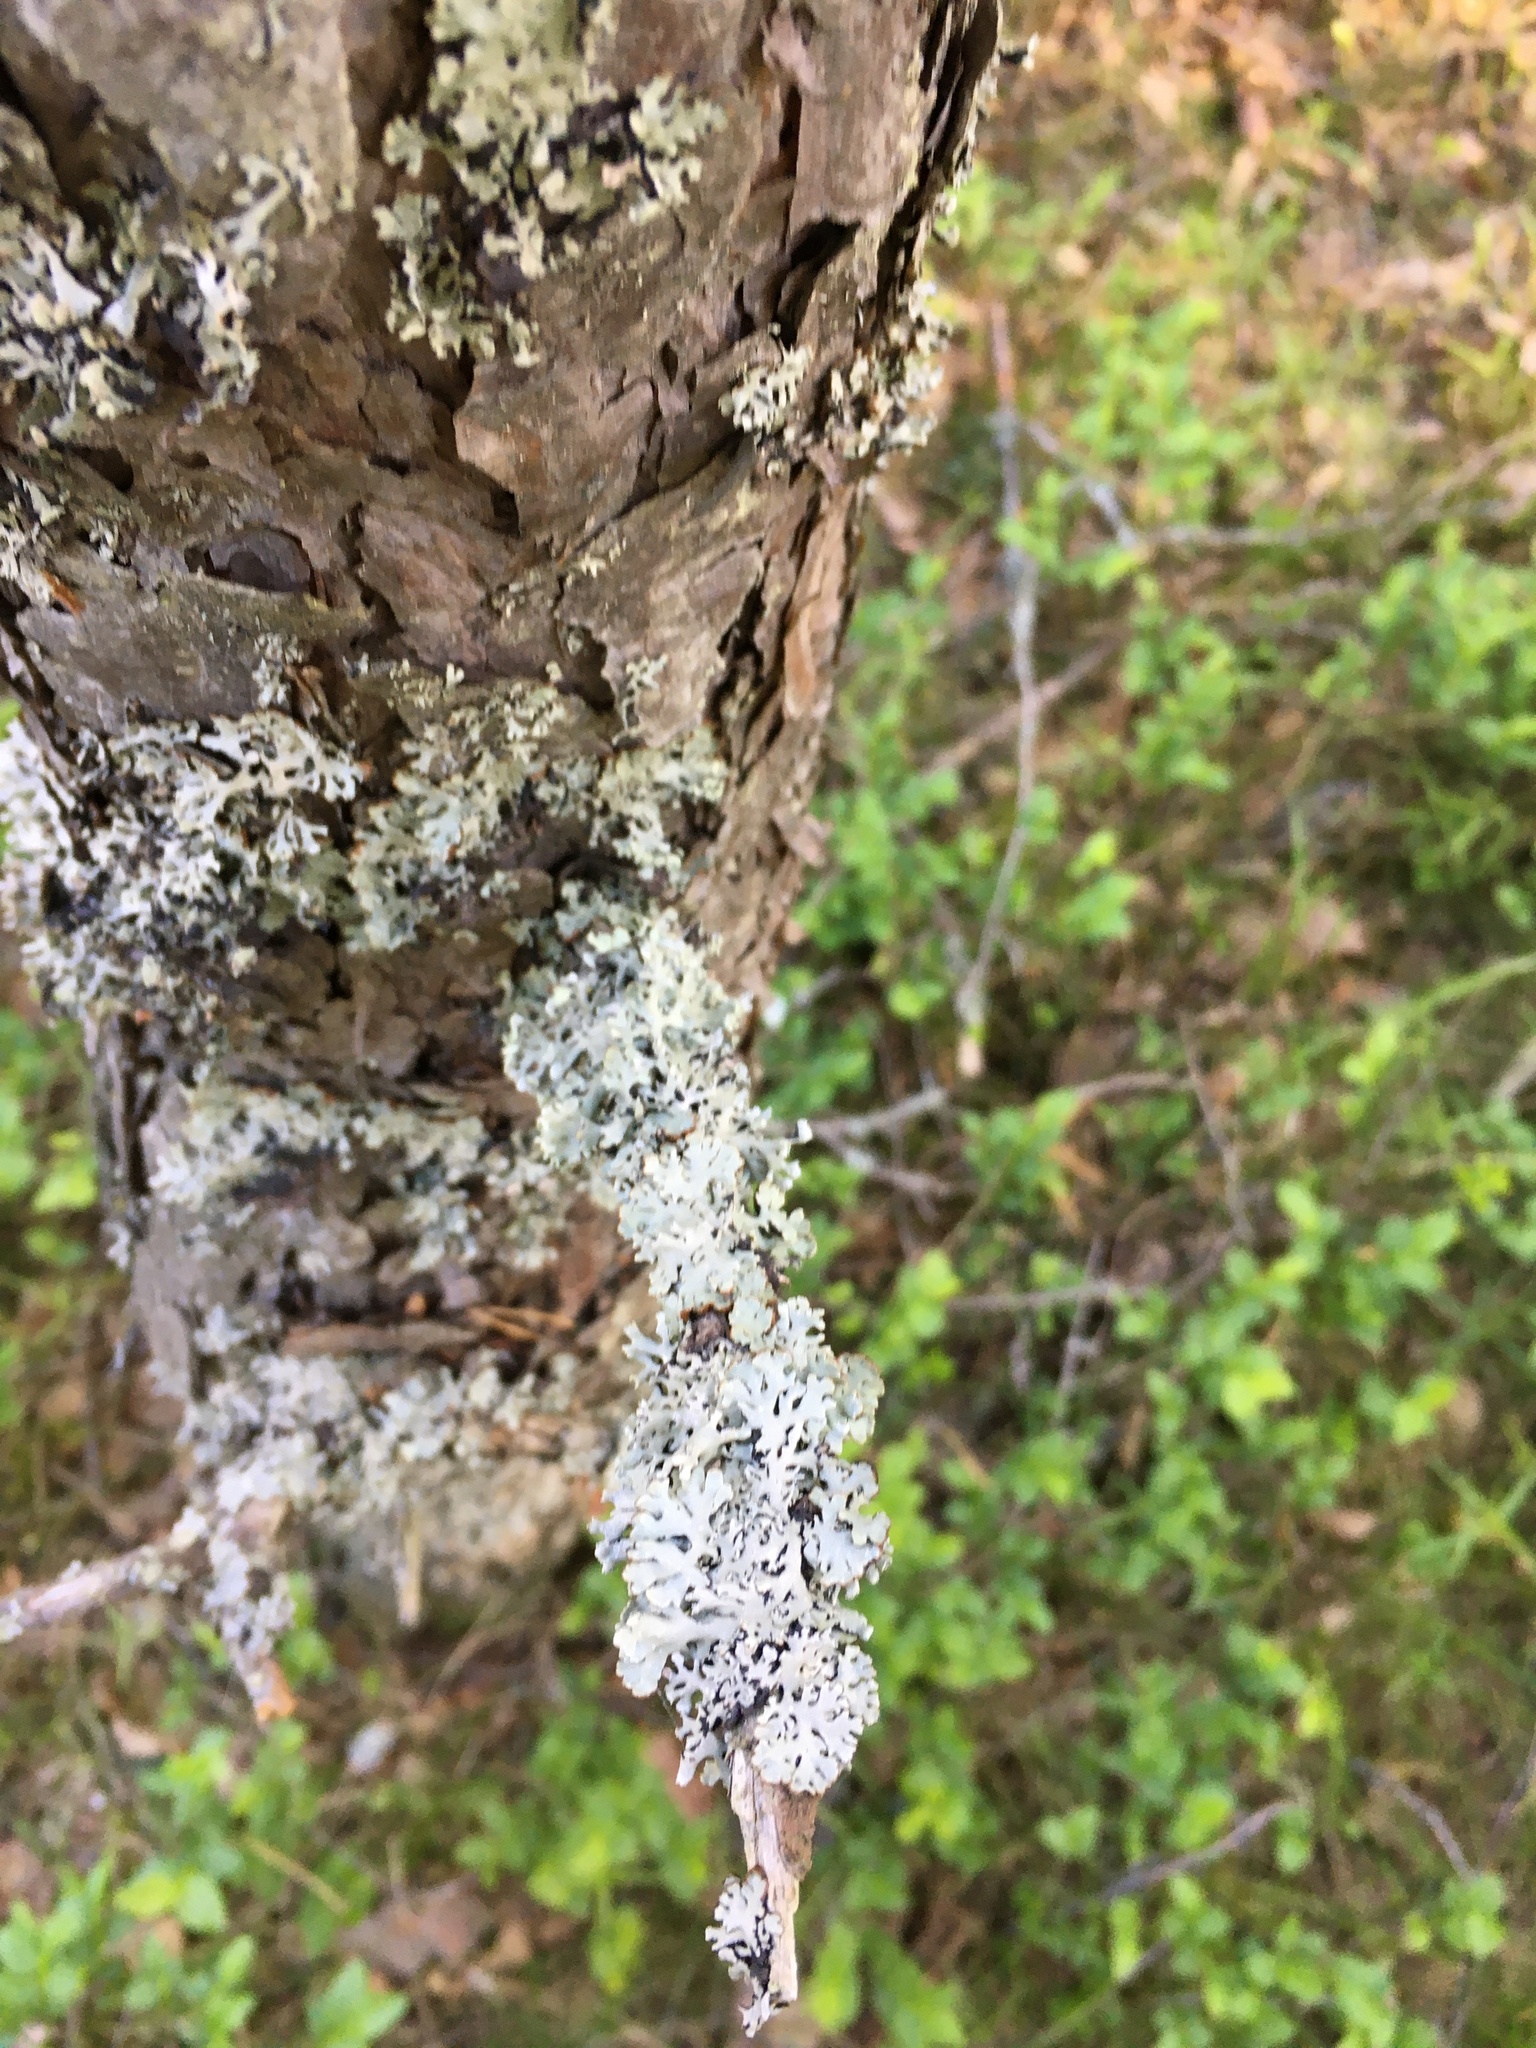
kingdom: Fungi
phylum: Ascomycota
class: Lecanoromycetes
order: Lecanorales
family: Parmeliaceae
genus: Hypogymnia
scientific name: Hypogymnia physodes
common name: Dark crottle
